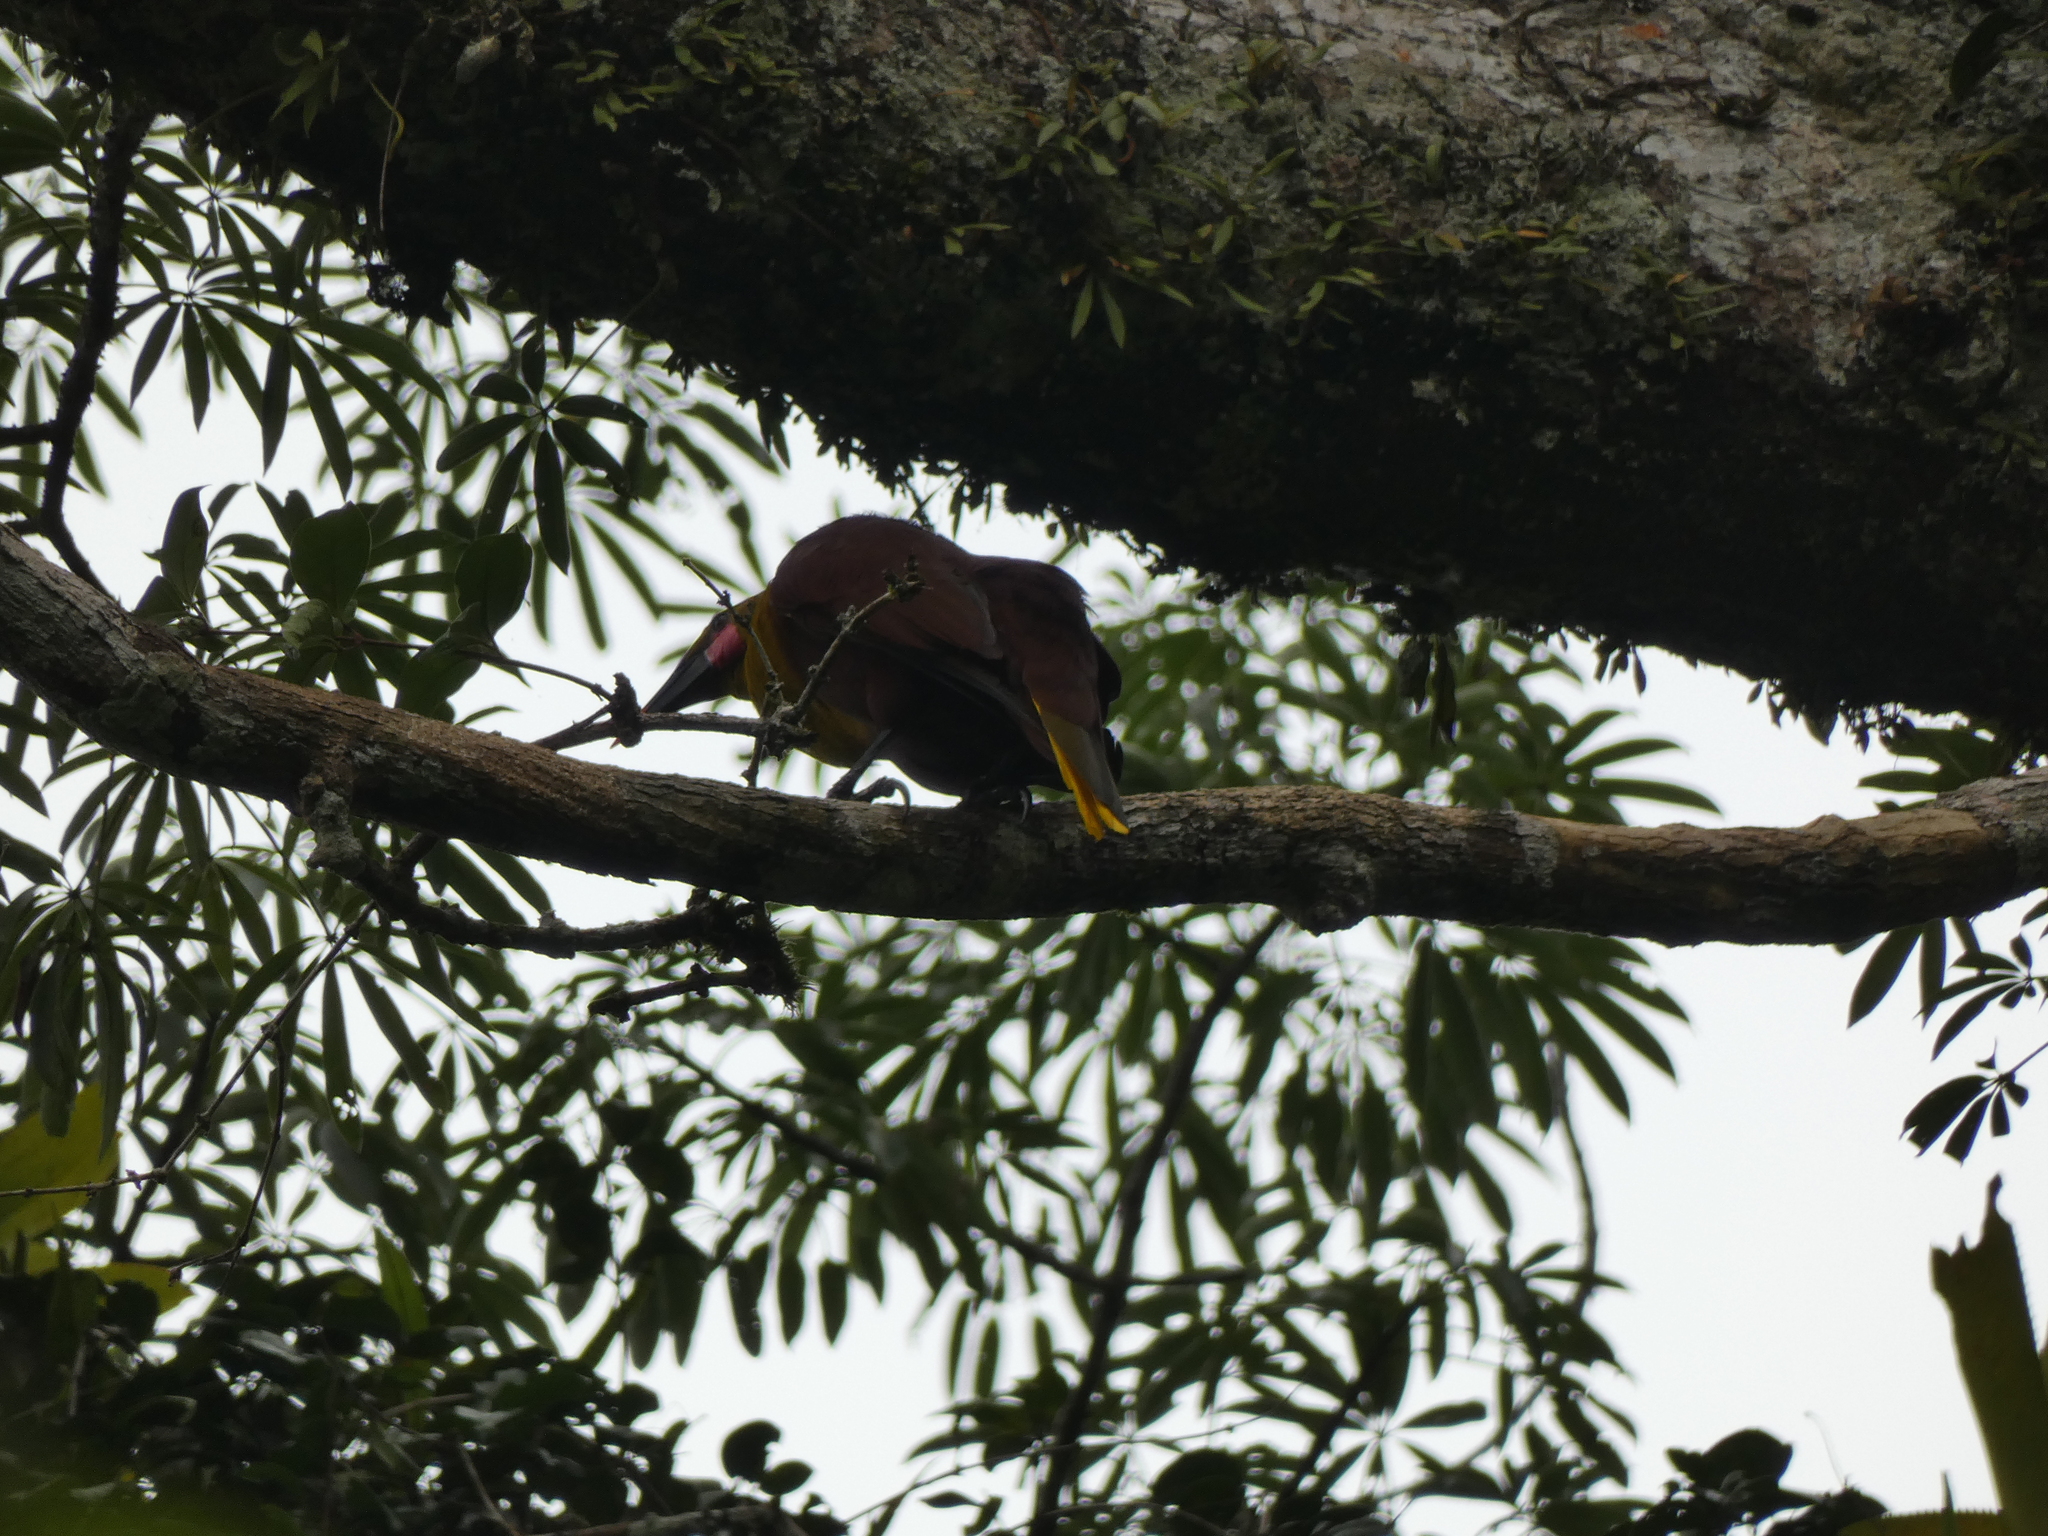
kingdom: Animalia
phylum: Chordata
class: Aves
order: Passeriformes
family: Icteridae
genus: Psarocolius
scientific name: Psarocolius bifasciatus
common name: Olive oropendola
